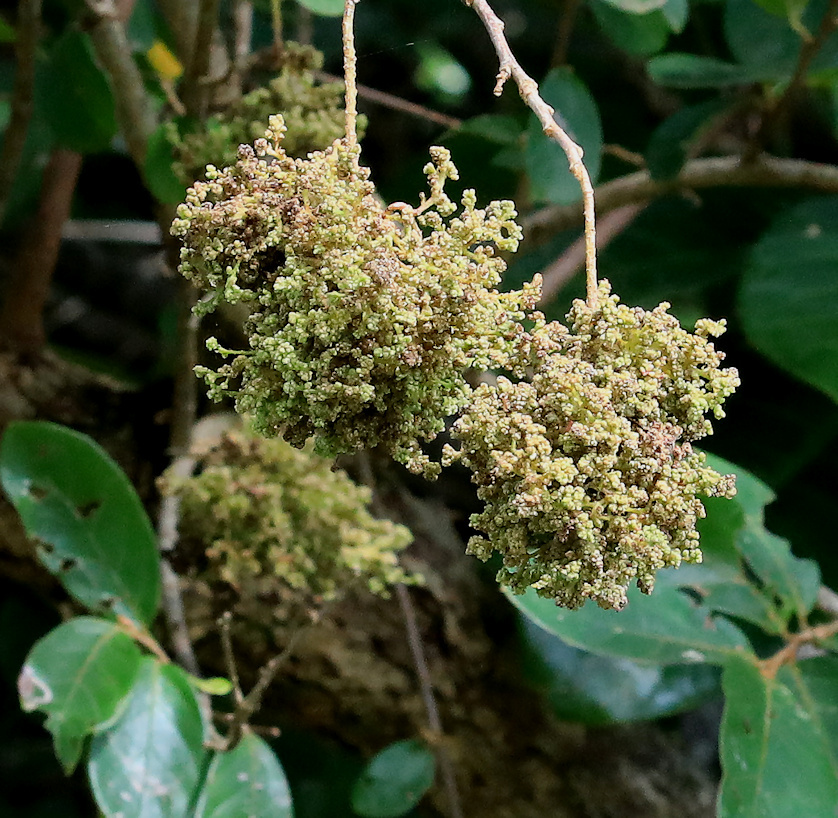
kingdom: Animalia
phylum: Arthropoda
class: Arachnida
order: Trombidiformes
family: Eriophyidae
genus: Colomerus
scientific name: Colomerus
